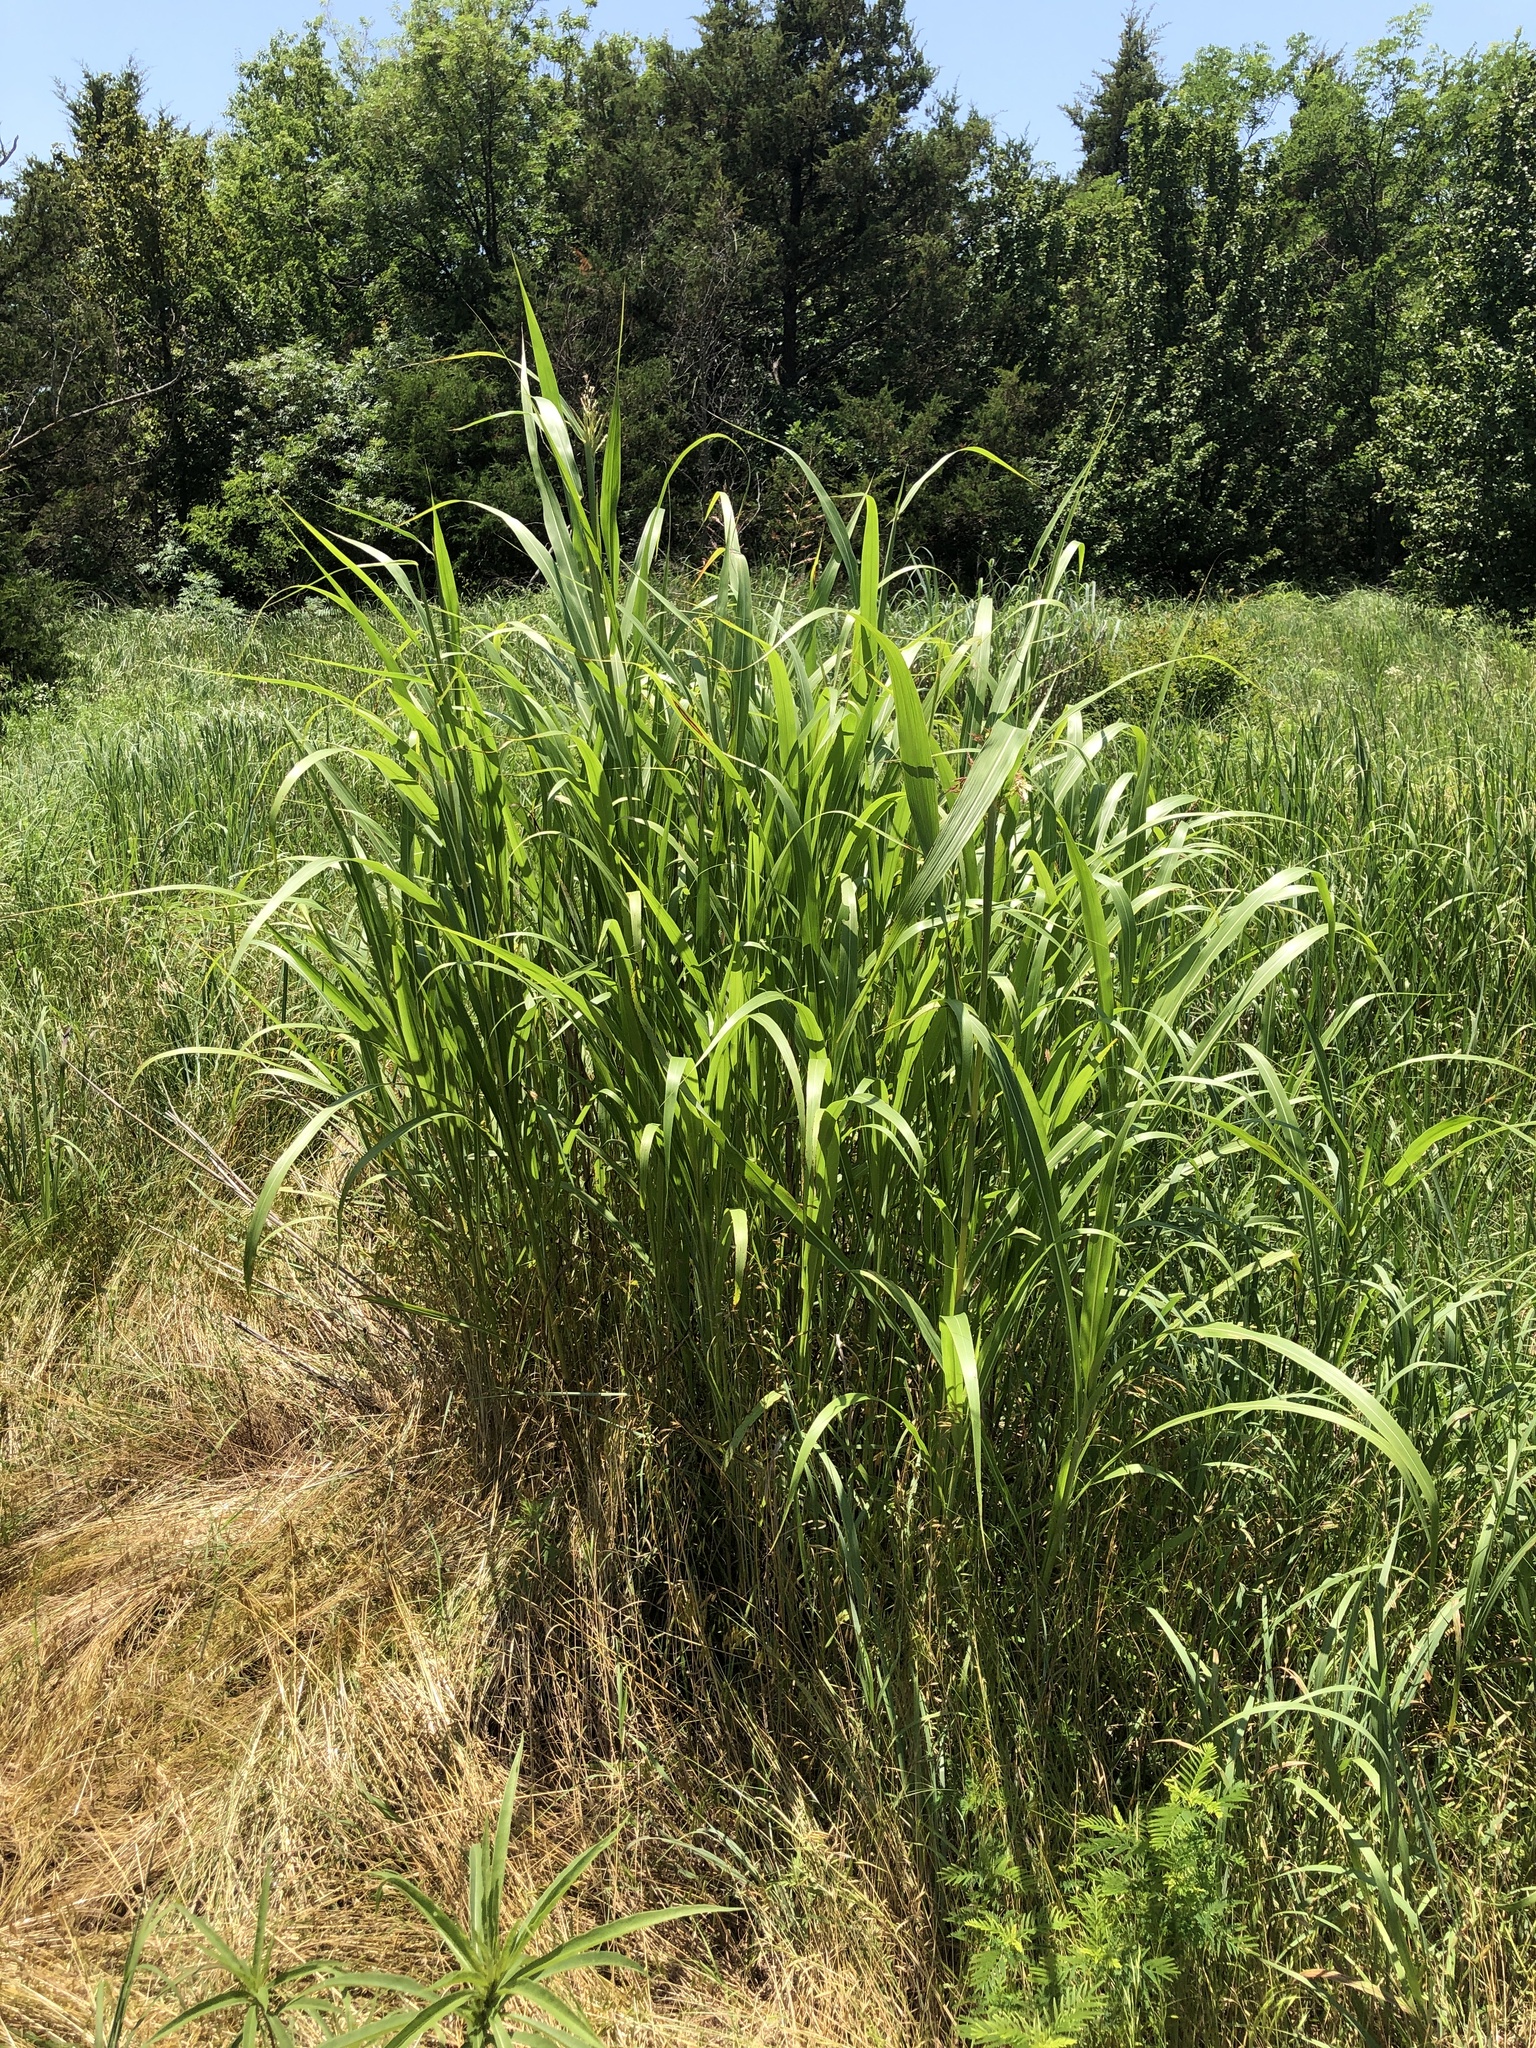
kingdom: Plantae
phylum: Tracheophyta
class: Liliopsida
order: Poales
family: Poaceae
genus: Sorghum
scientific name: Sorghum halepense
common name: Johnson-grass
